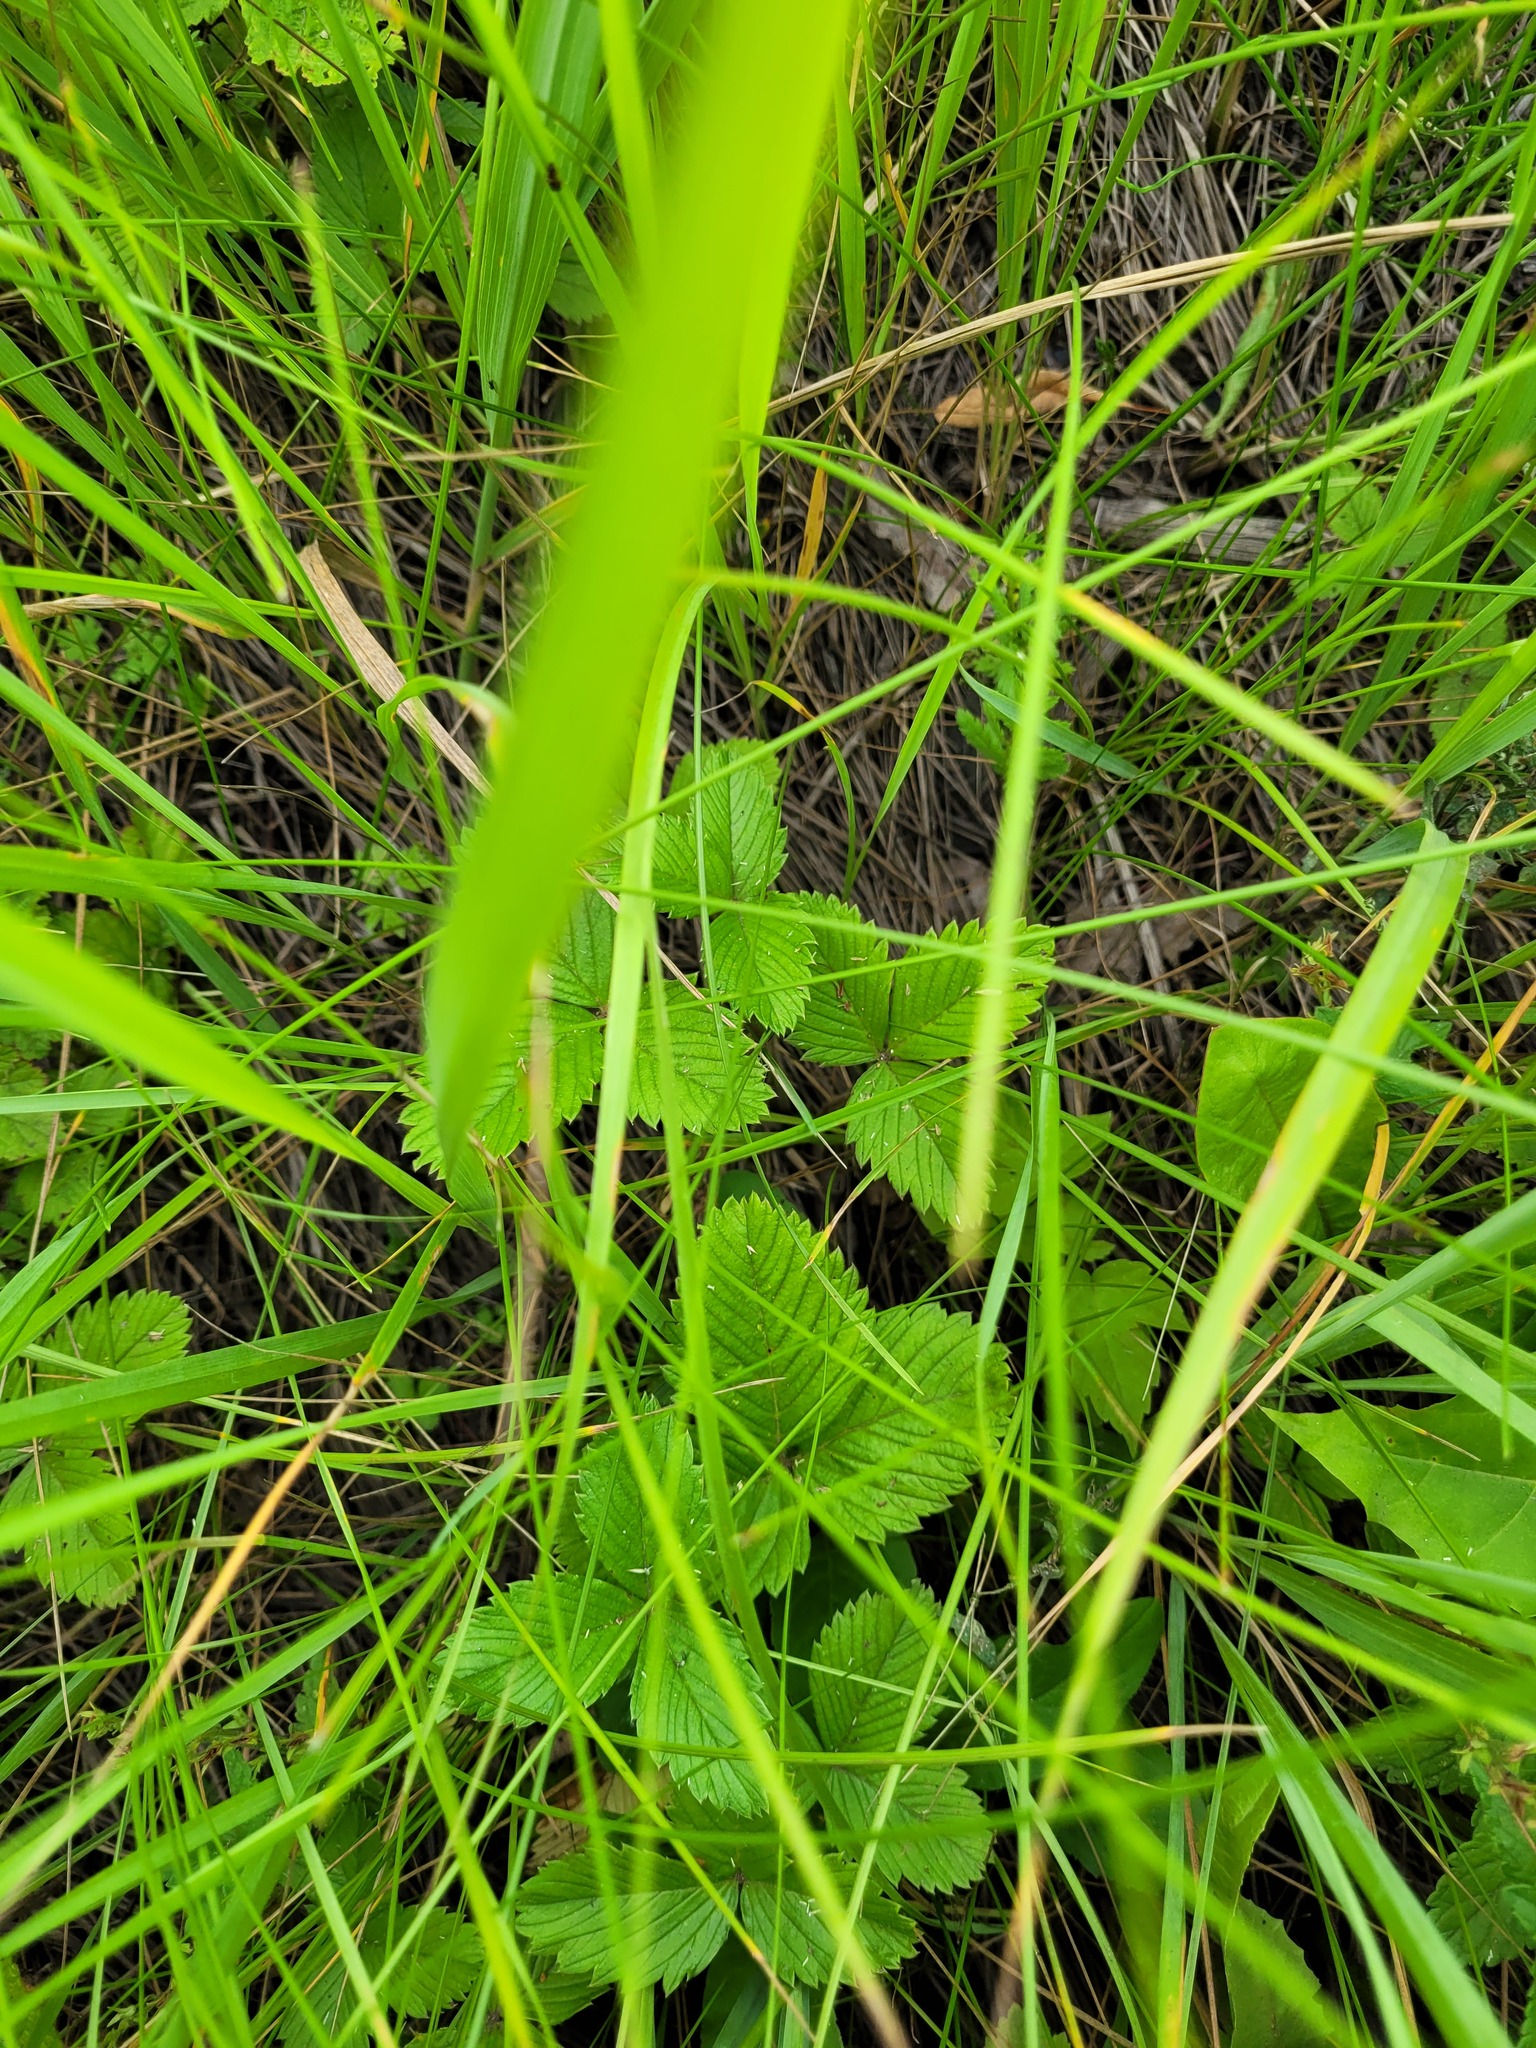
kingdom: Plantae
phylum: Tracheophyta
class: Magnoliopsida
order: Rosales
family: Rosaceae
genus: Fragaria
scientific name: Fragaria viridis
